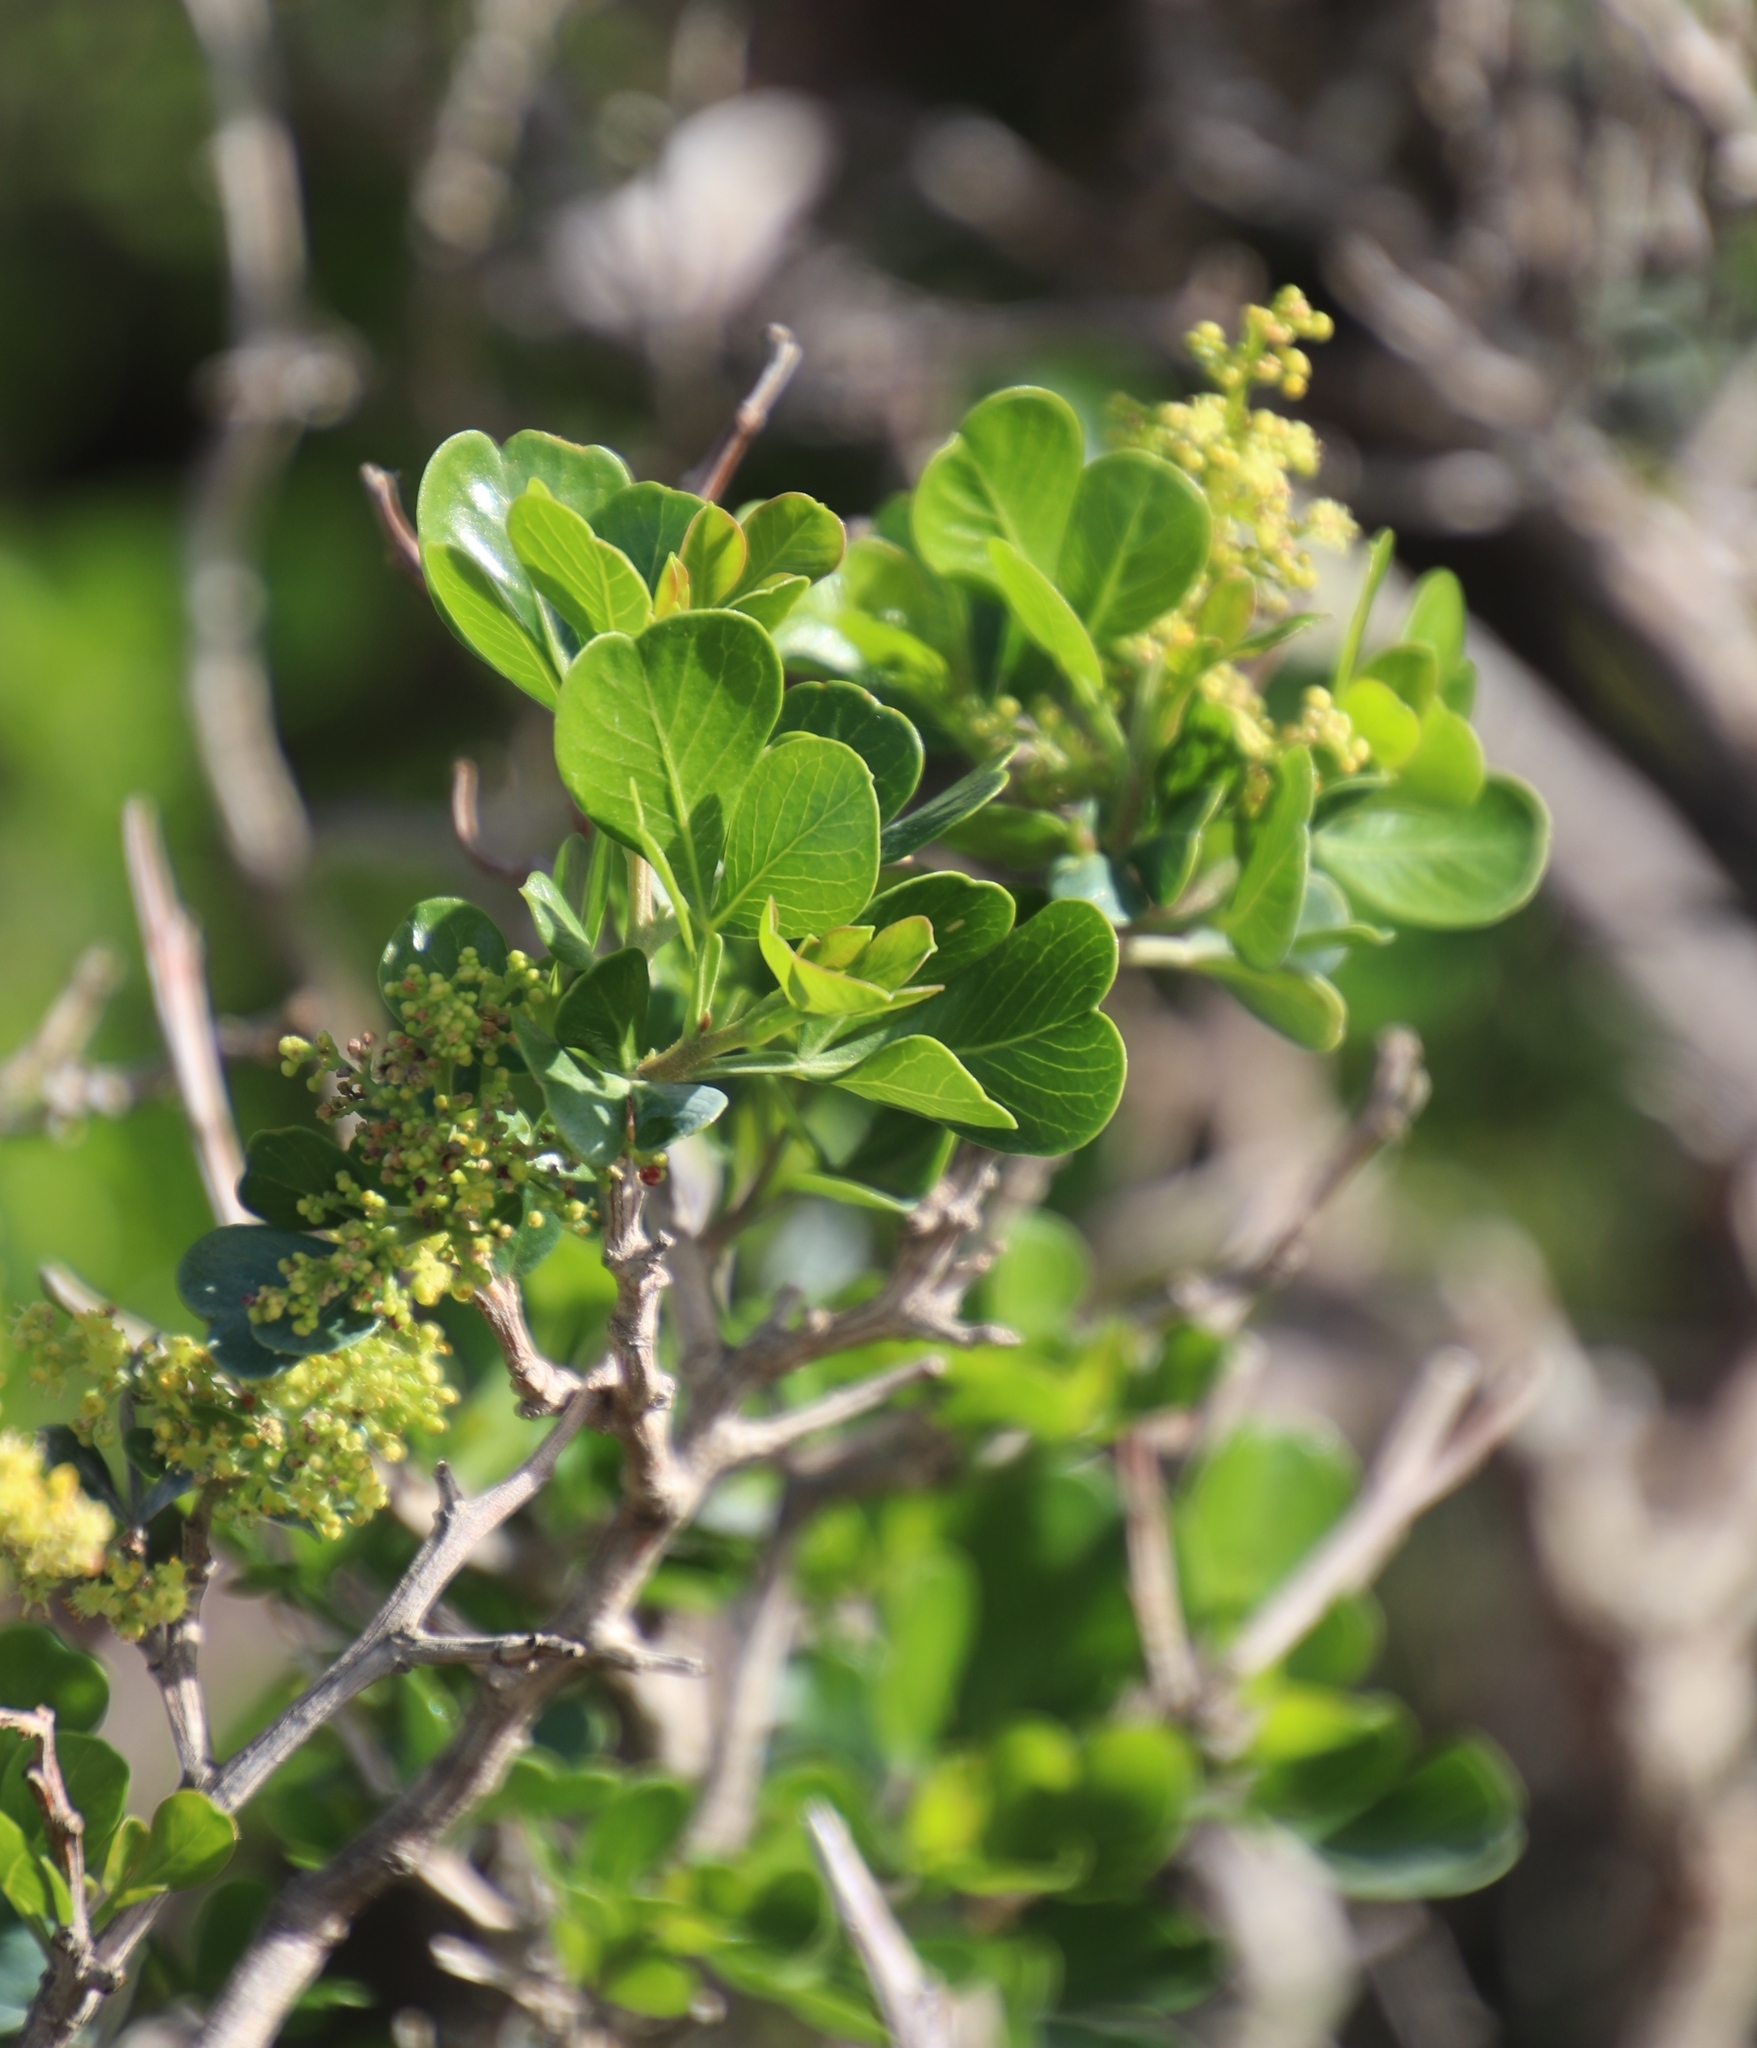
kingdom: Plantae
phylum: Tracheophyta
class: Magnoliopsida
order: Sapindales
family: Anacardiaceae
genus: Searsia
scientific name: Searsia glauca
